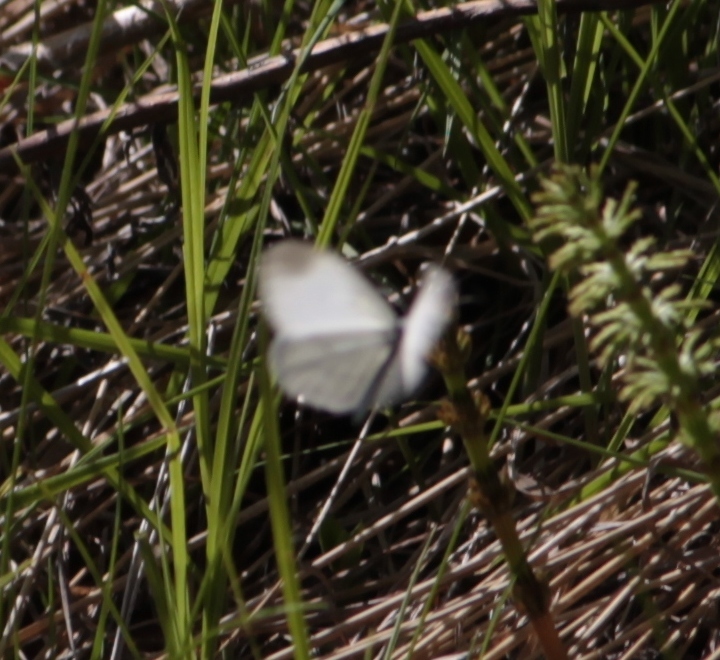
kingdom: Animalia
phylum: Arthropoda
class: Insecta
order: Lepidoptera
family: Pieridae
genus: Leptidea
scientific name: Leptidea
